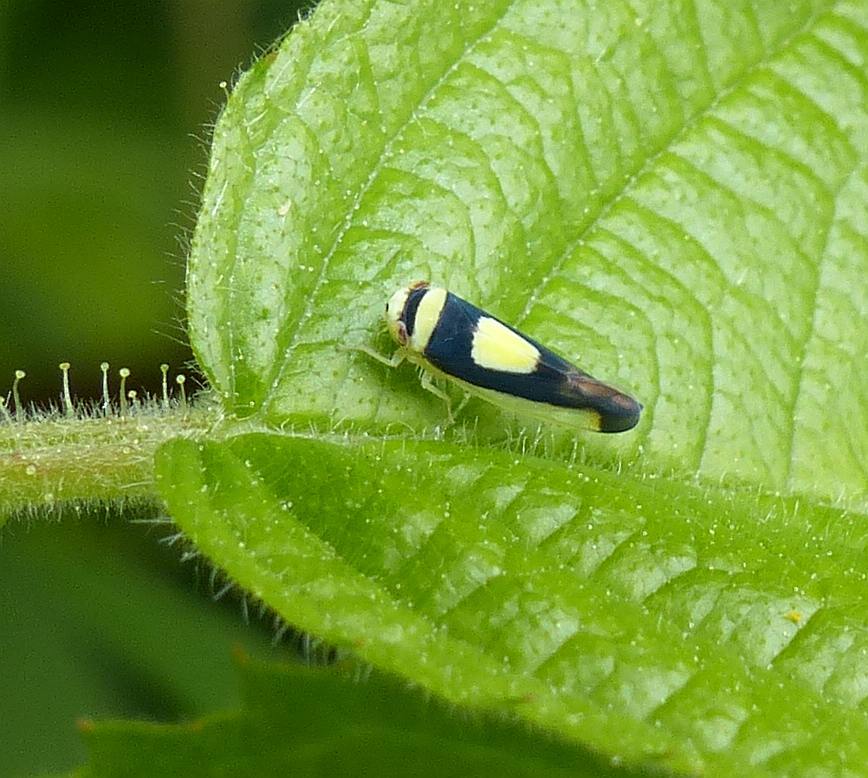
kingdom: Animalia
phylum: Arthropoda
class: Insecta
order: Hemiptera
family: Cicadellidae
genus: Colladonus
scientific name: Colladonus clitellarius
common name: The saddleback leafhopper
